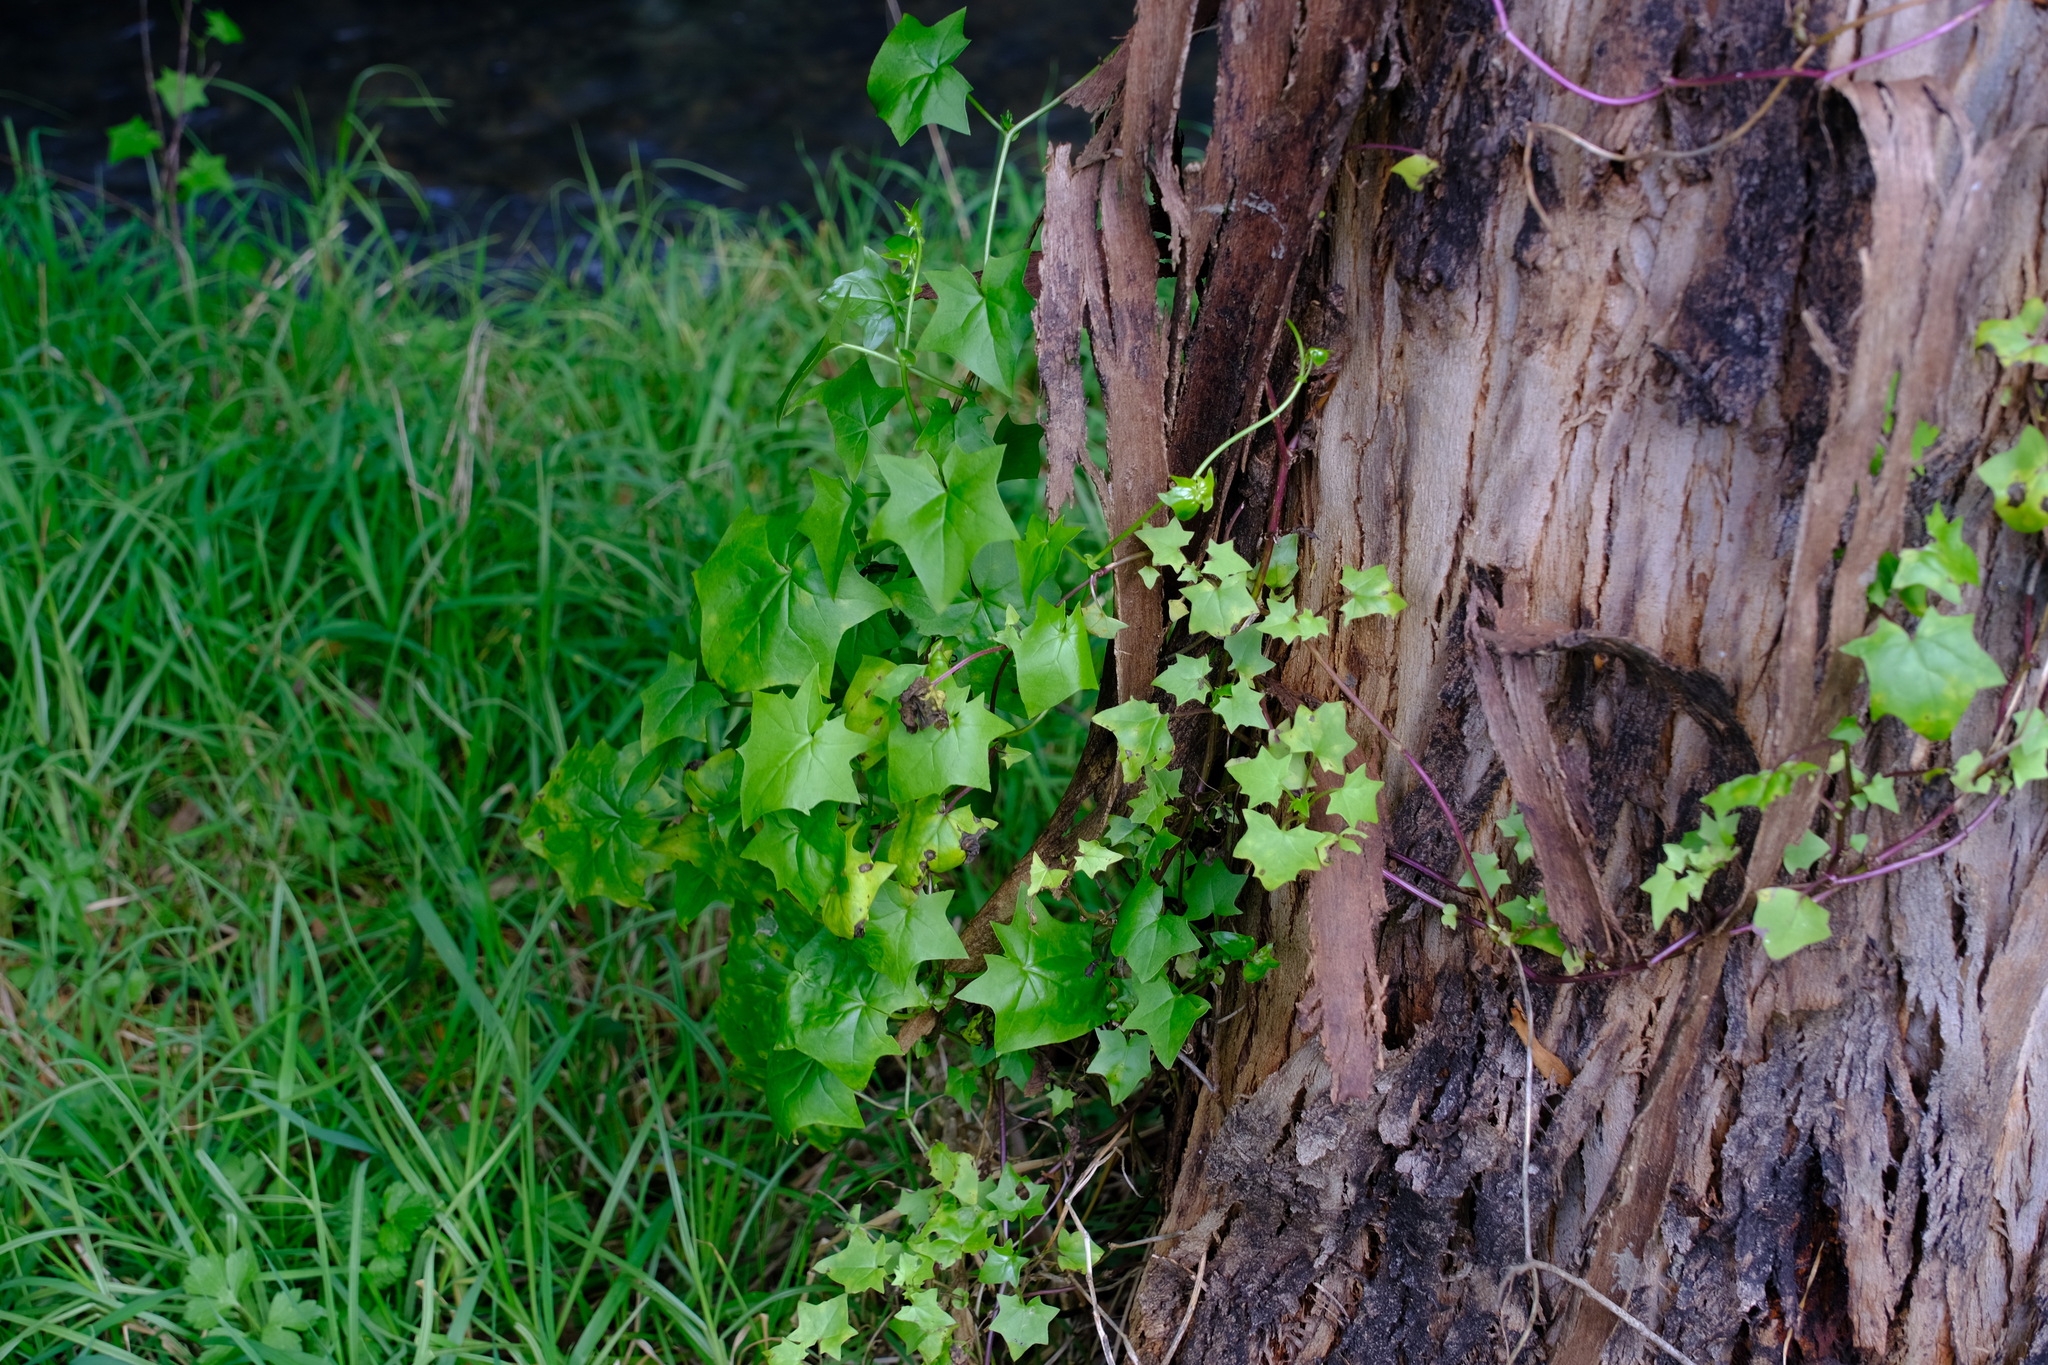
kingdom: Plantae
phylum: Tracheophyta
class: Magnoliopsida
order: Asterales
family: Asteraceae
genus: Delairea
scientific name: Delairea odorata
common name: Cape-ivy
